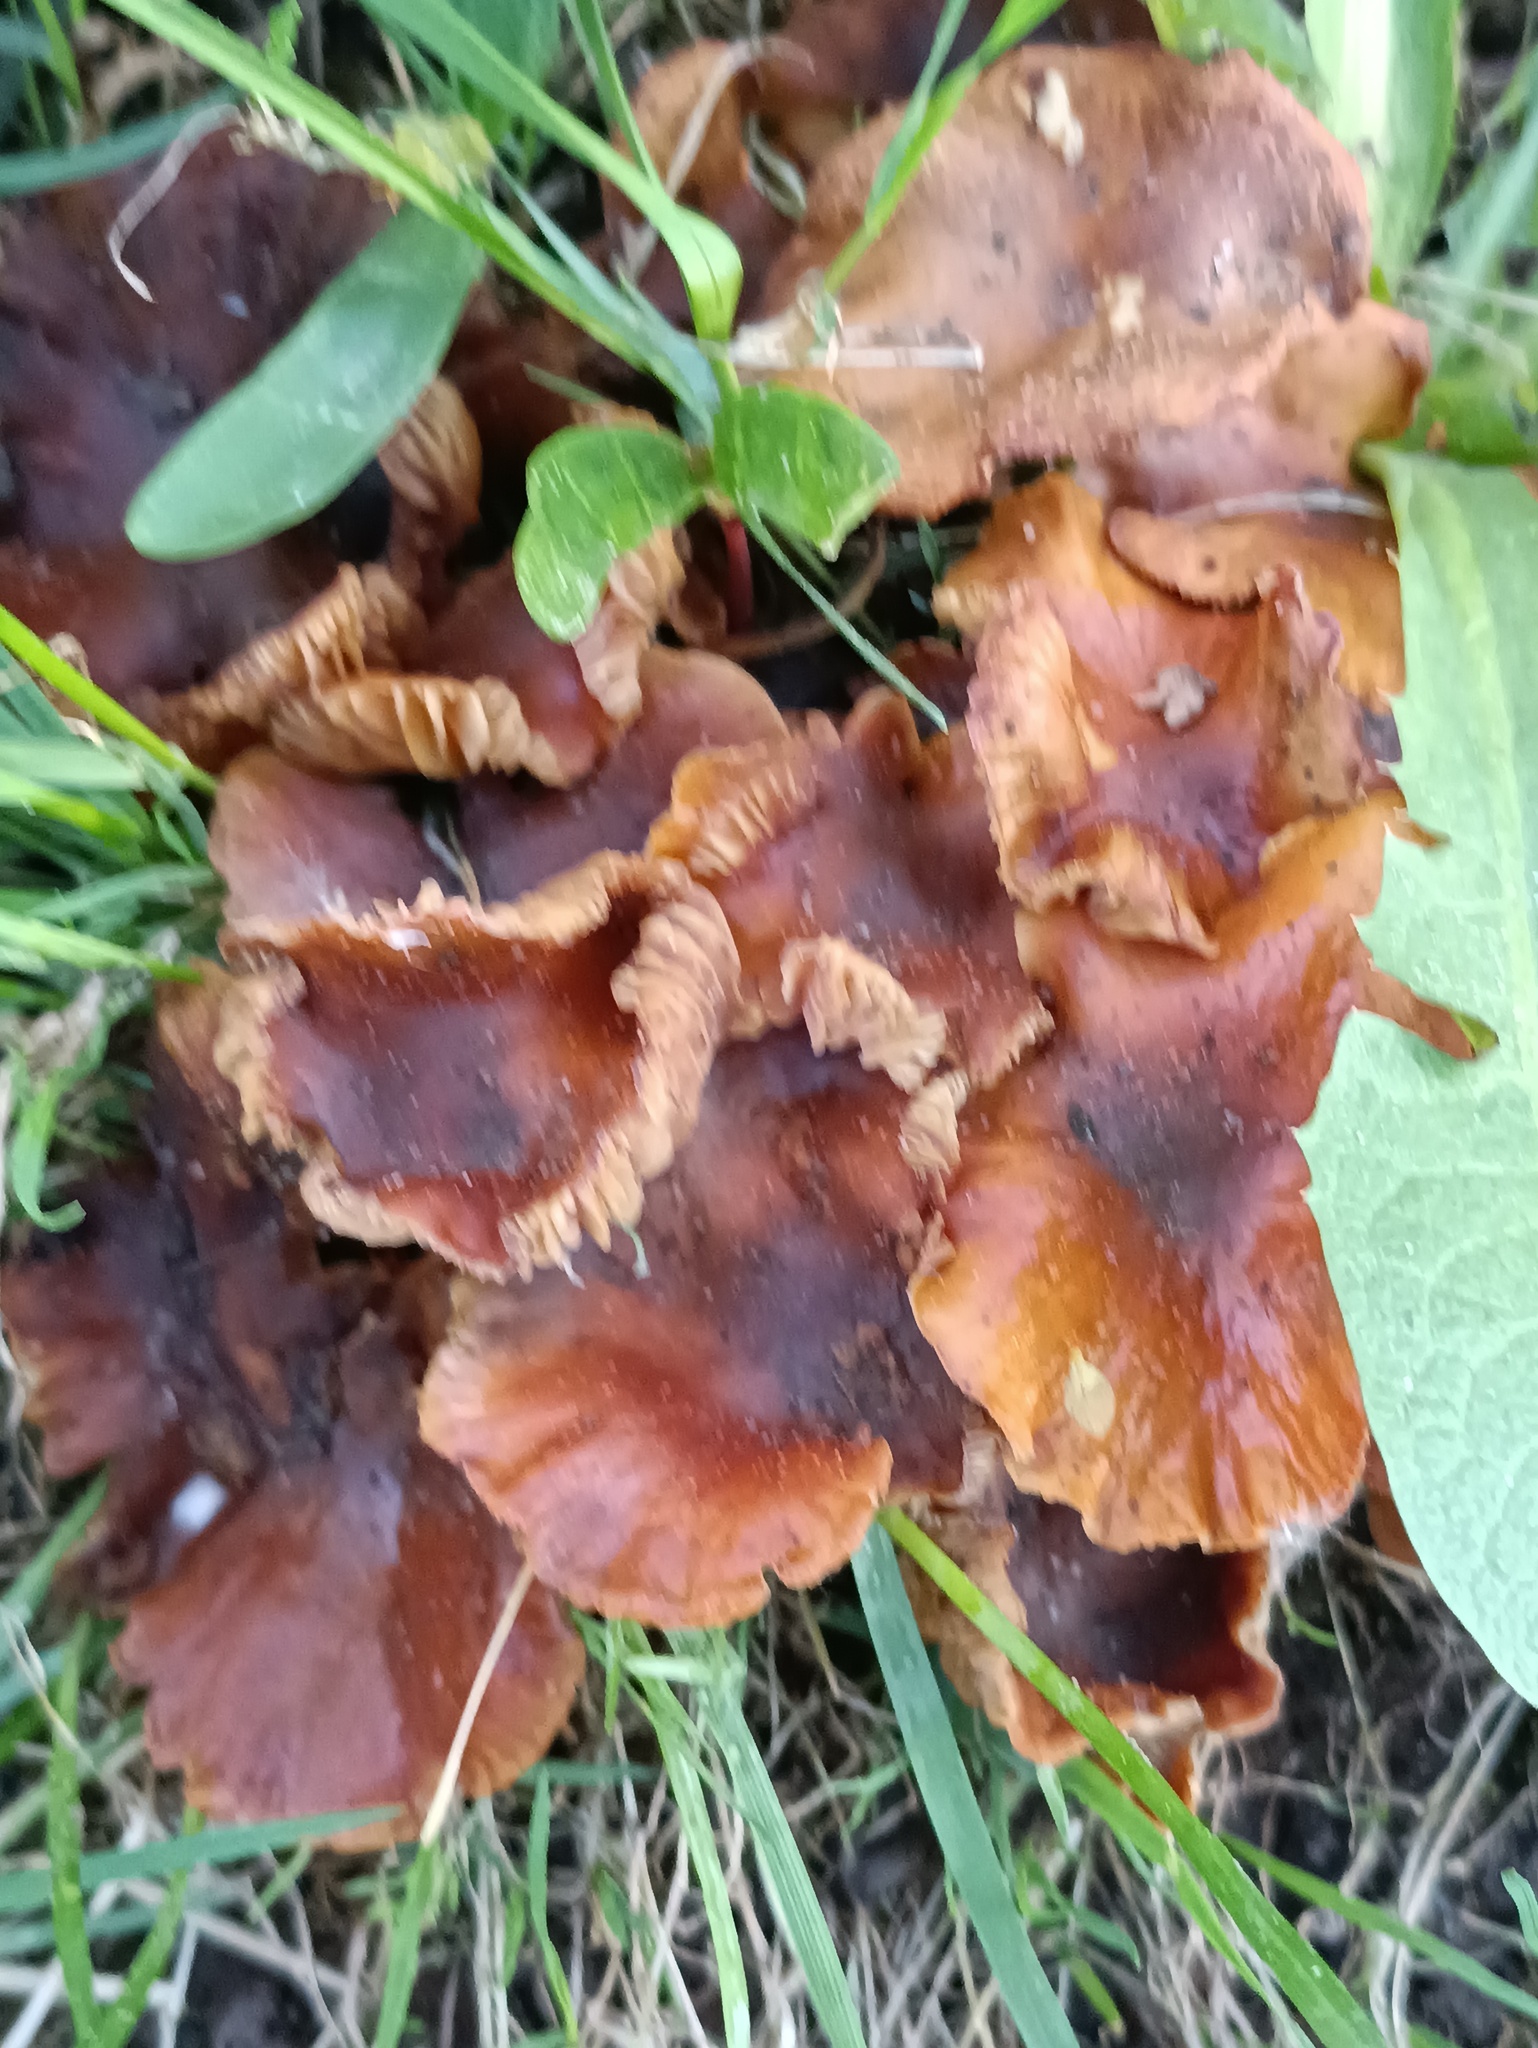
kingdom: Fungi
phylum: Basidiomycota
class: Agaricomycetes
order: Agaricales
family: Physalacriaceae
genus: Flammulina
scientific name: Flammulina
